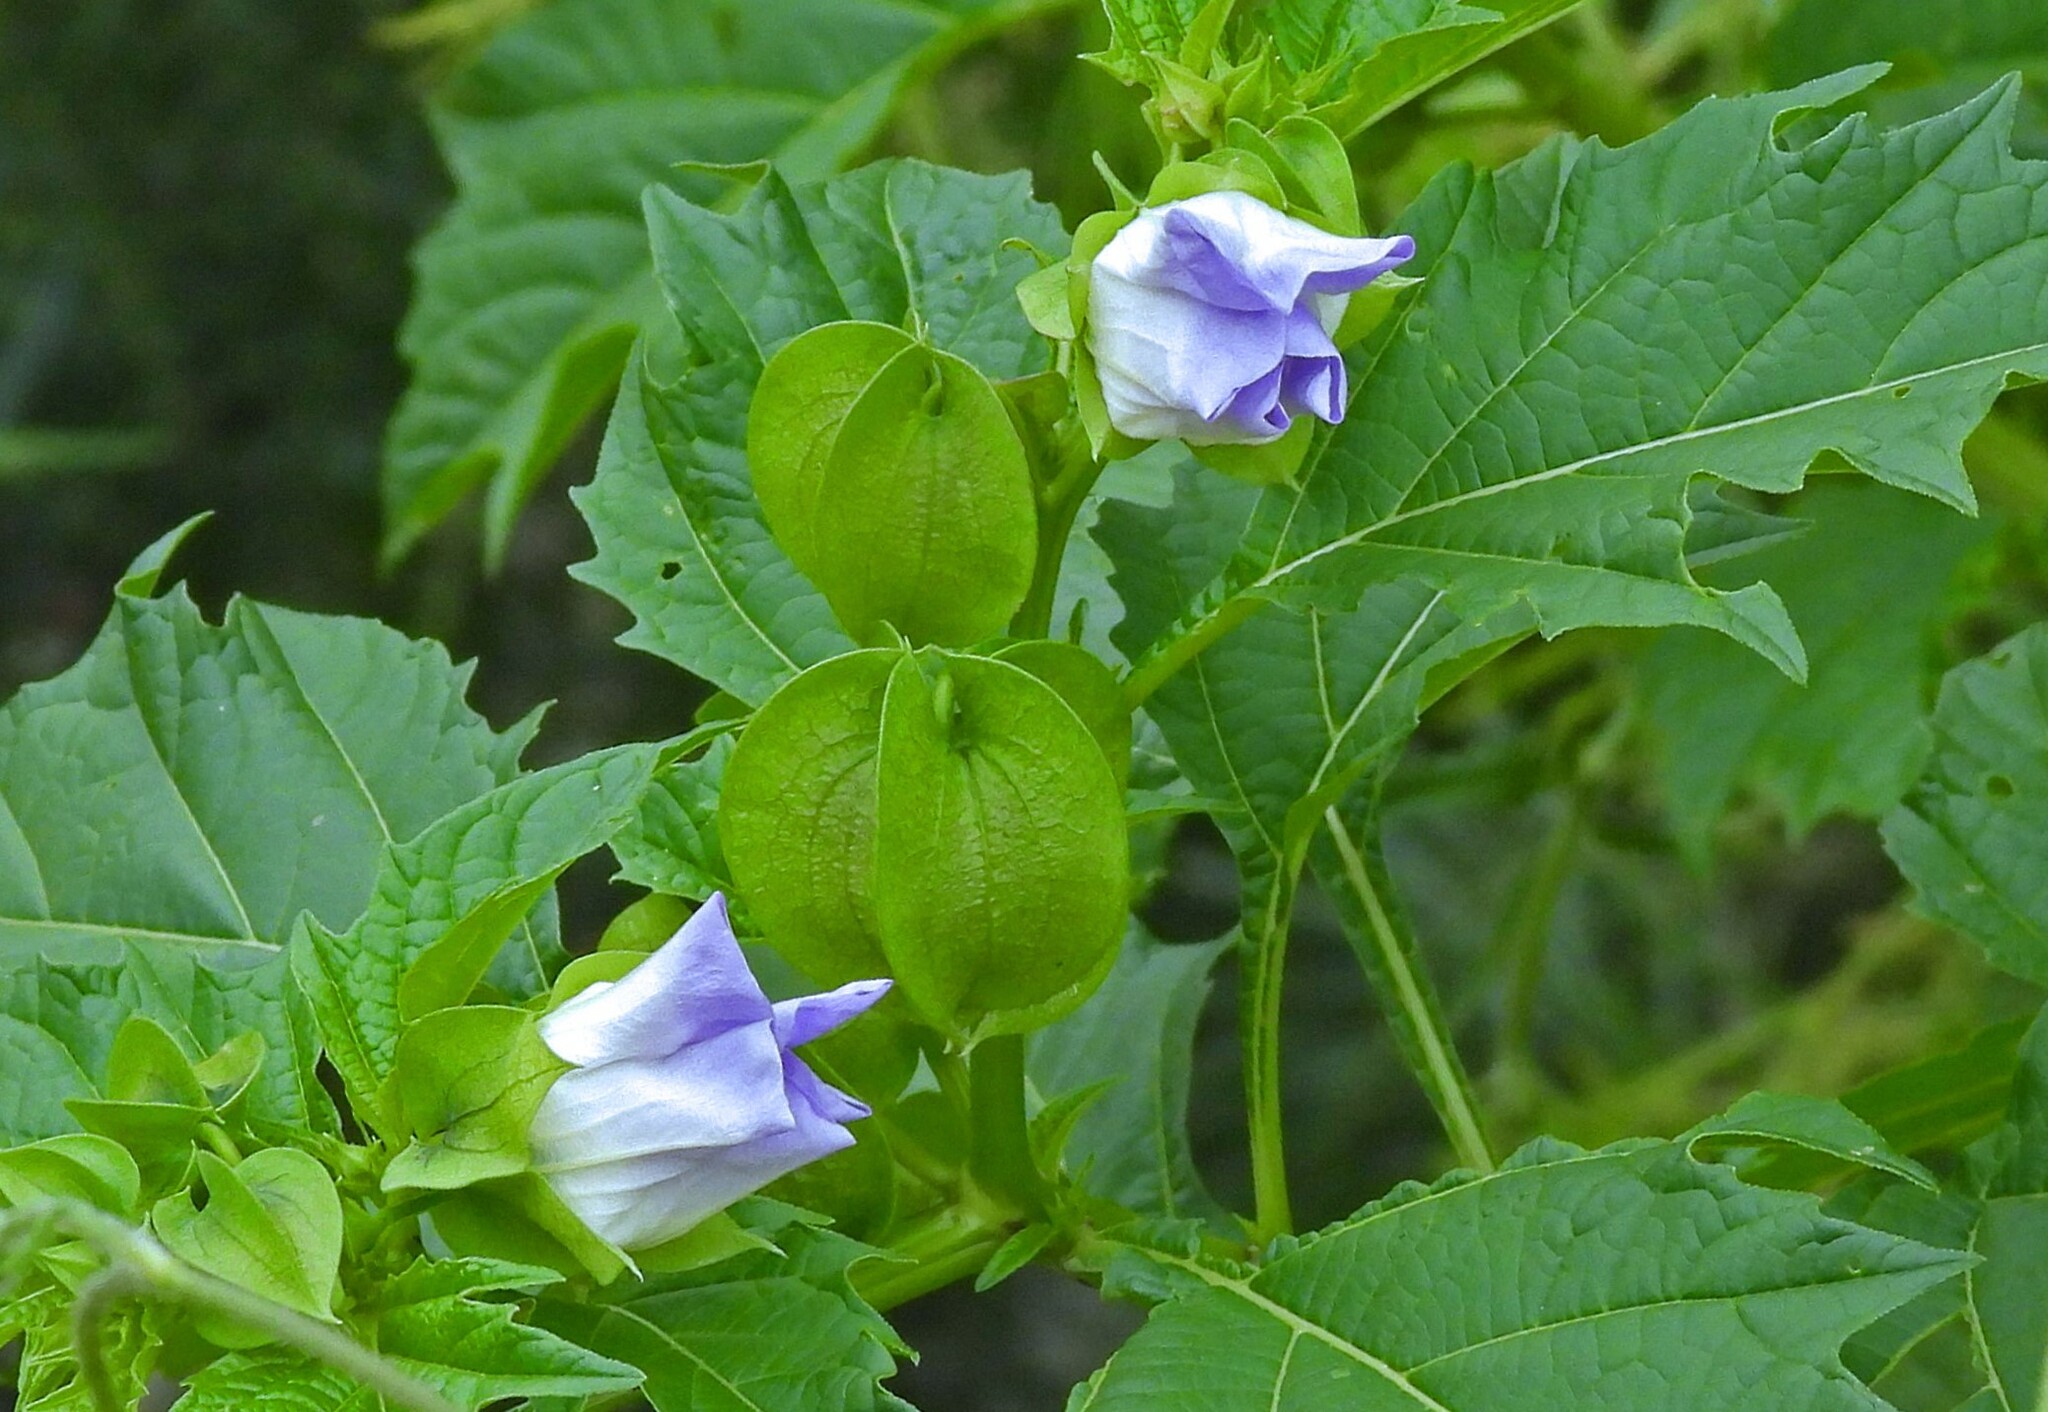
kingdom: Plantae
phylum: Tracheophyta
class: Magnoliopsida
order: Solanales
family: Solanaceae
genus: Nicandra
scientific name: Nicandra physalodes
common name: Apple-of-peru
